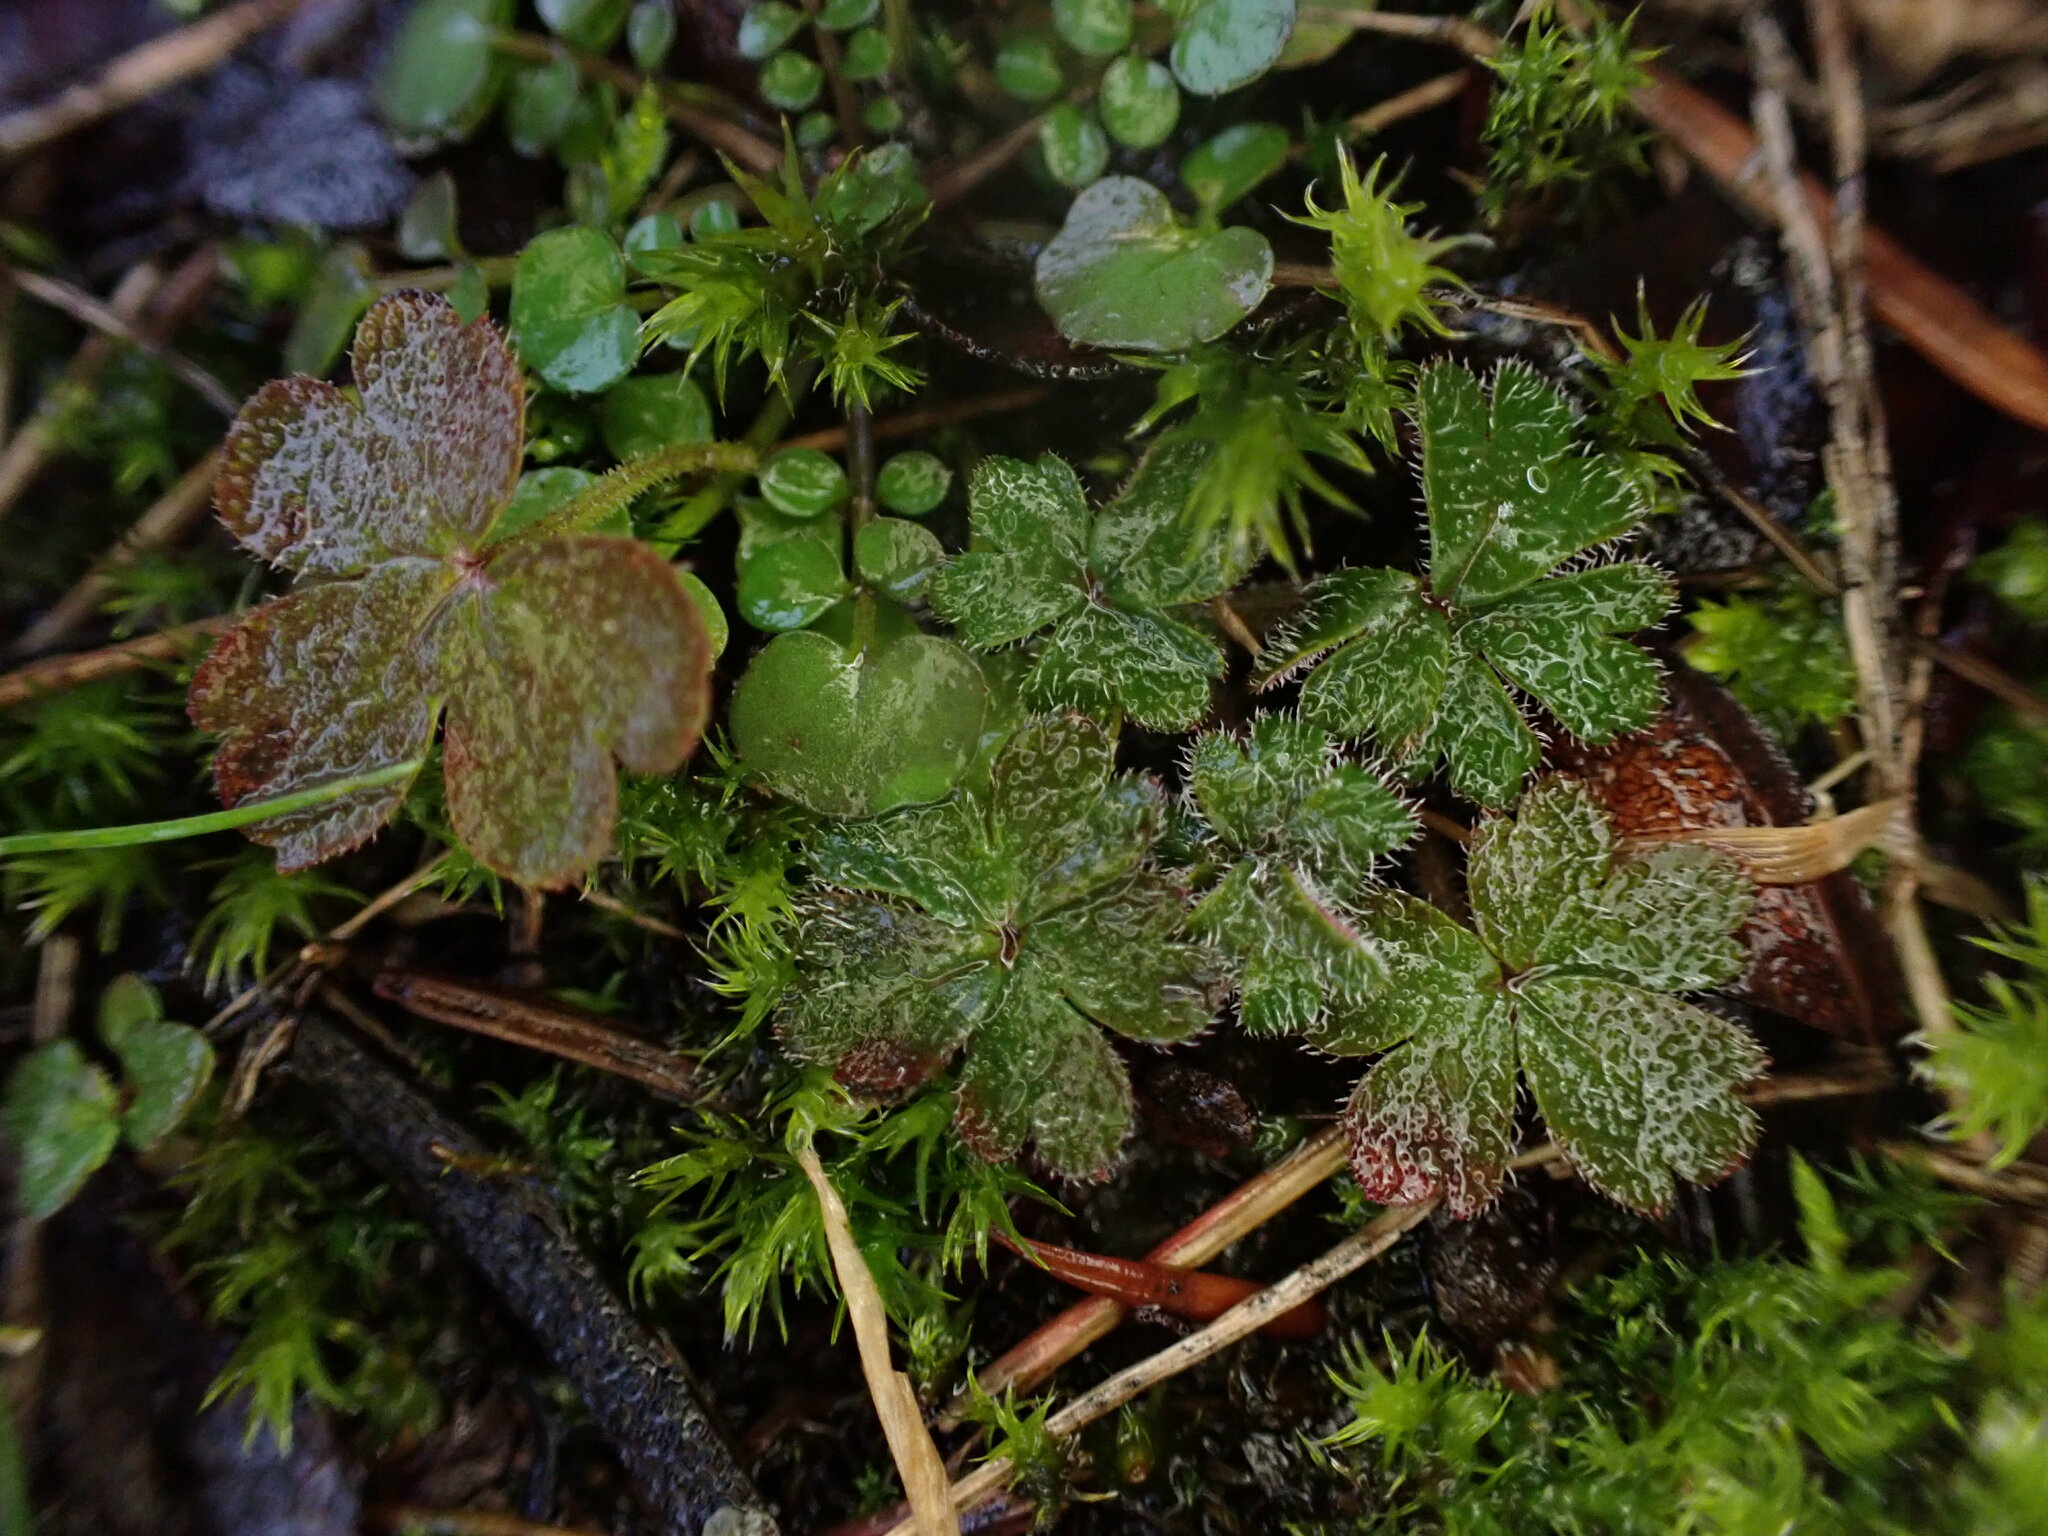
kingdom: Plantae
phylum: Tracheophyta
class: Magnoliopsida
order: Saxifragales
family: Saxifragaceae
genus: Lithophragma
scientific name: Lithophragma parviflorum
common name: Small-flowered fringe-cup
